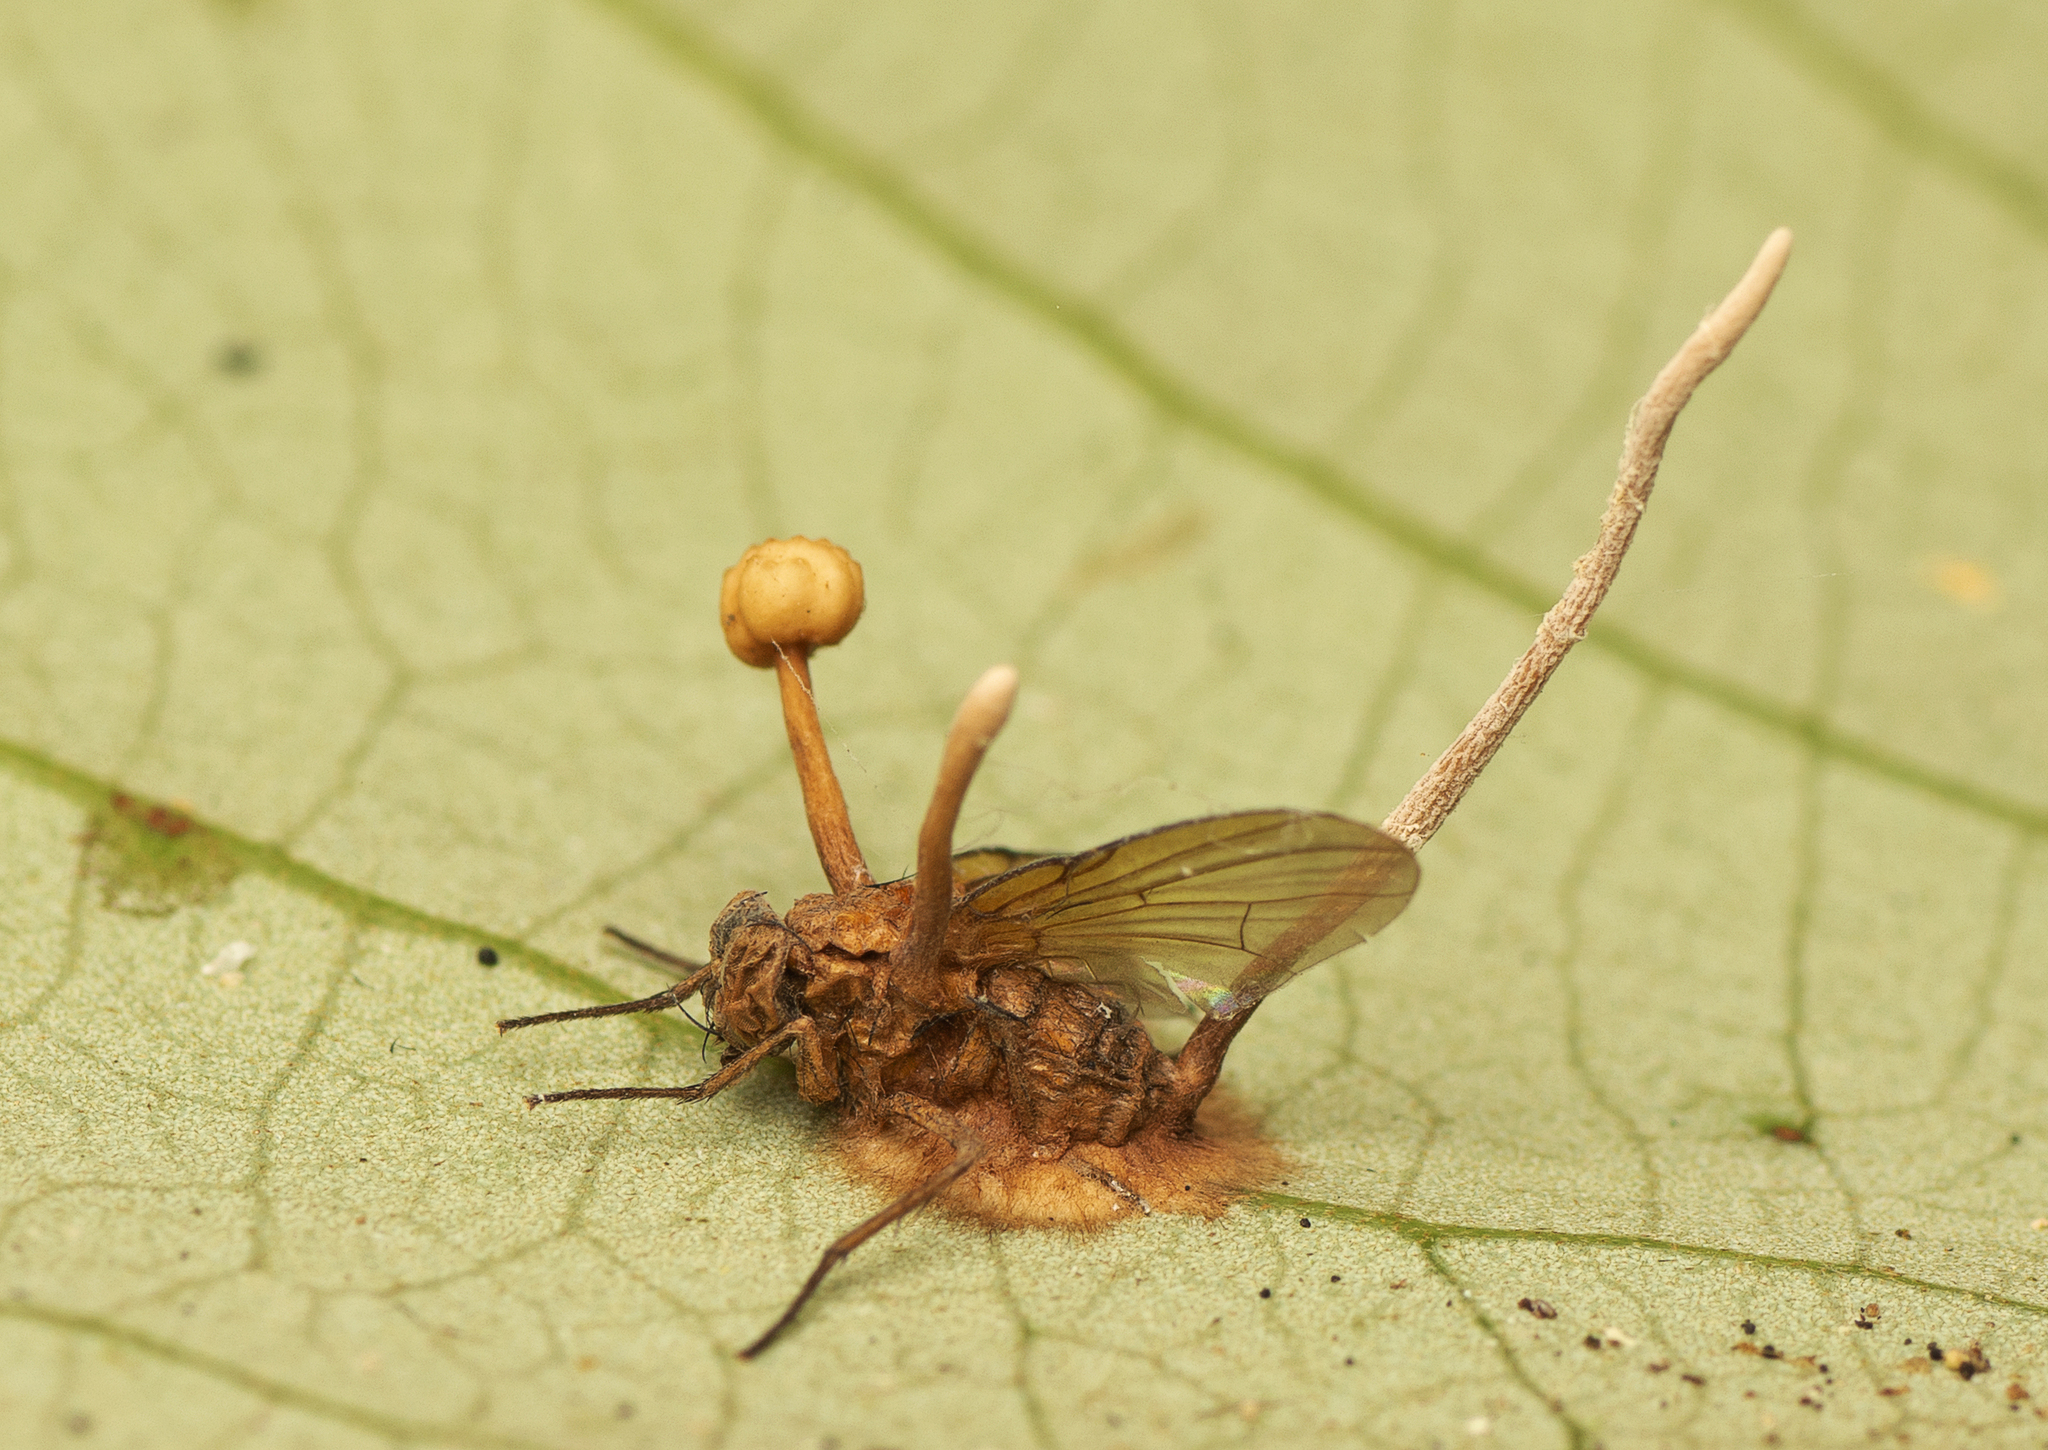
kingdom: Fungi
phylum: Ascomycota
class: Sordariomycetes
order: Hypocreales
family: Ophiocordycipitaceae
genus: Ophiocordyceps
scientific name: Ophiocordyceps dipterigena
